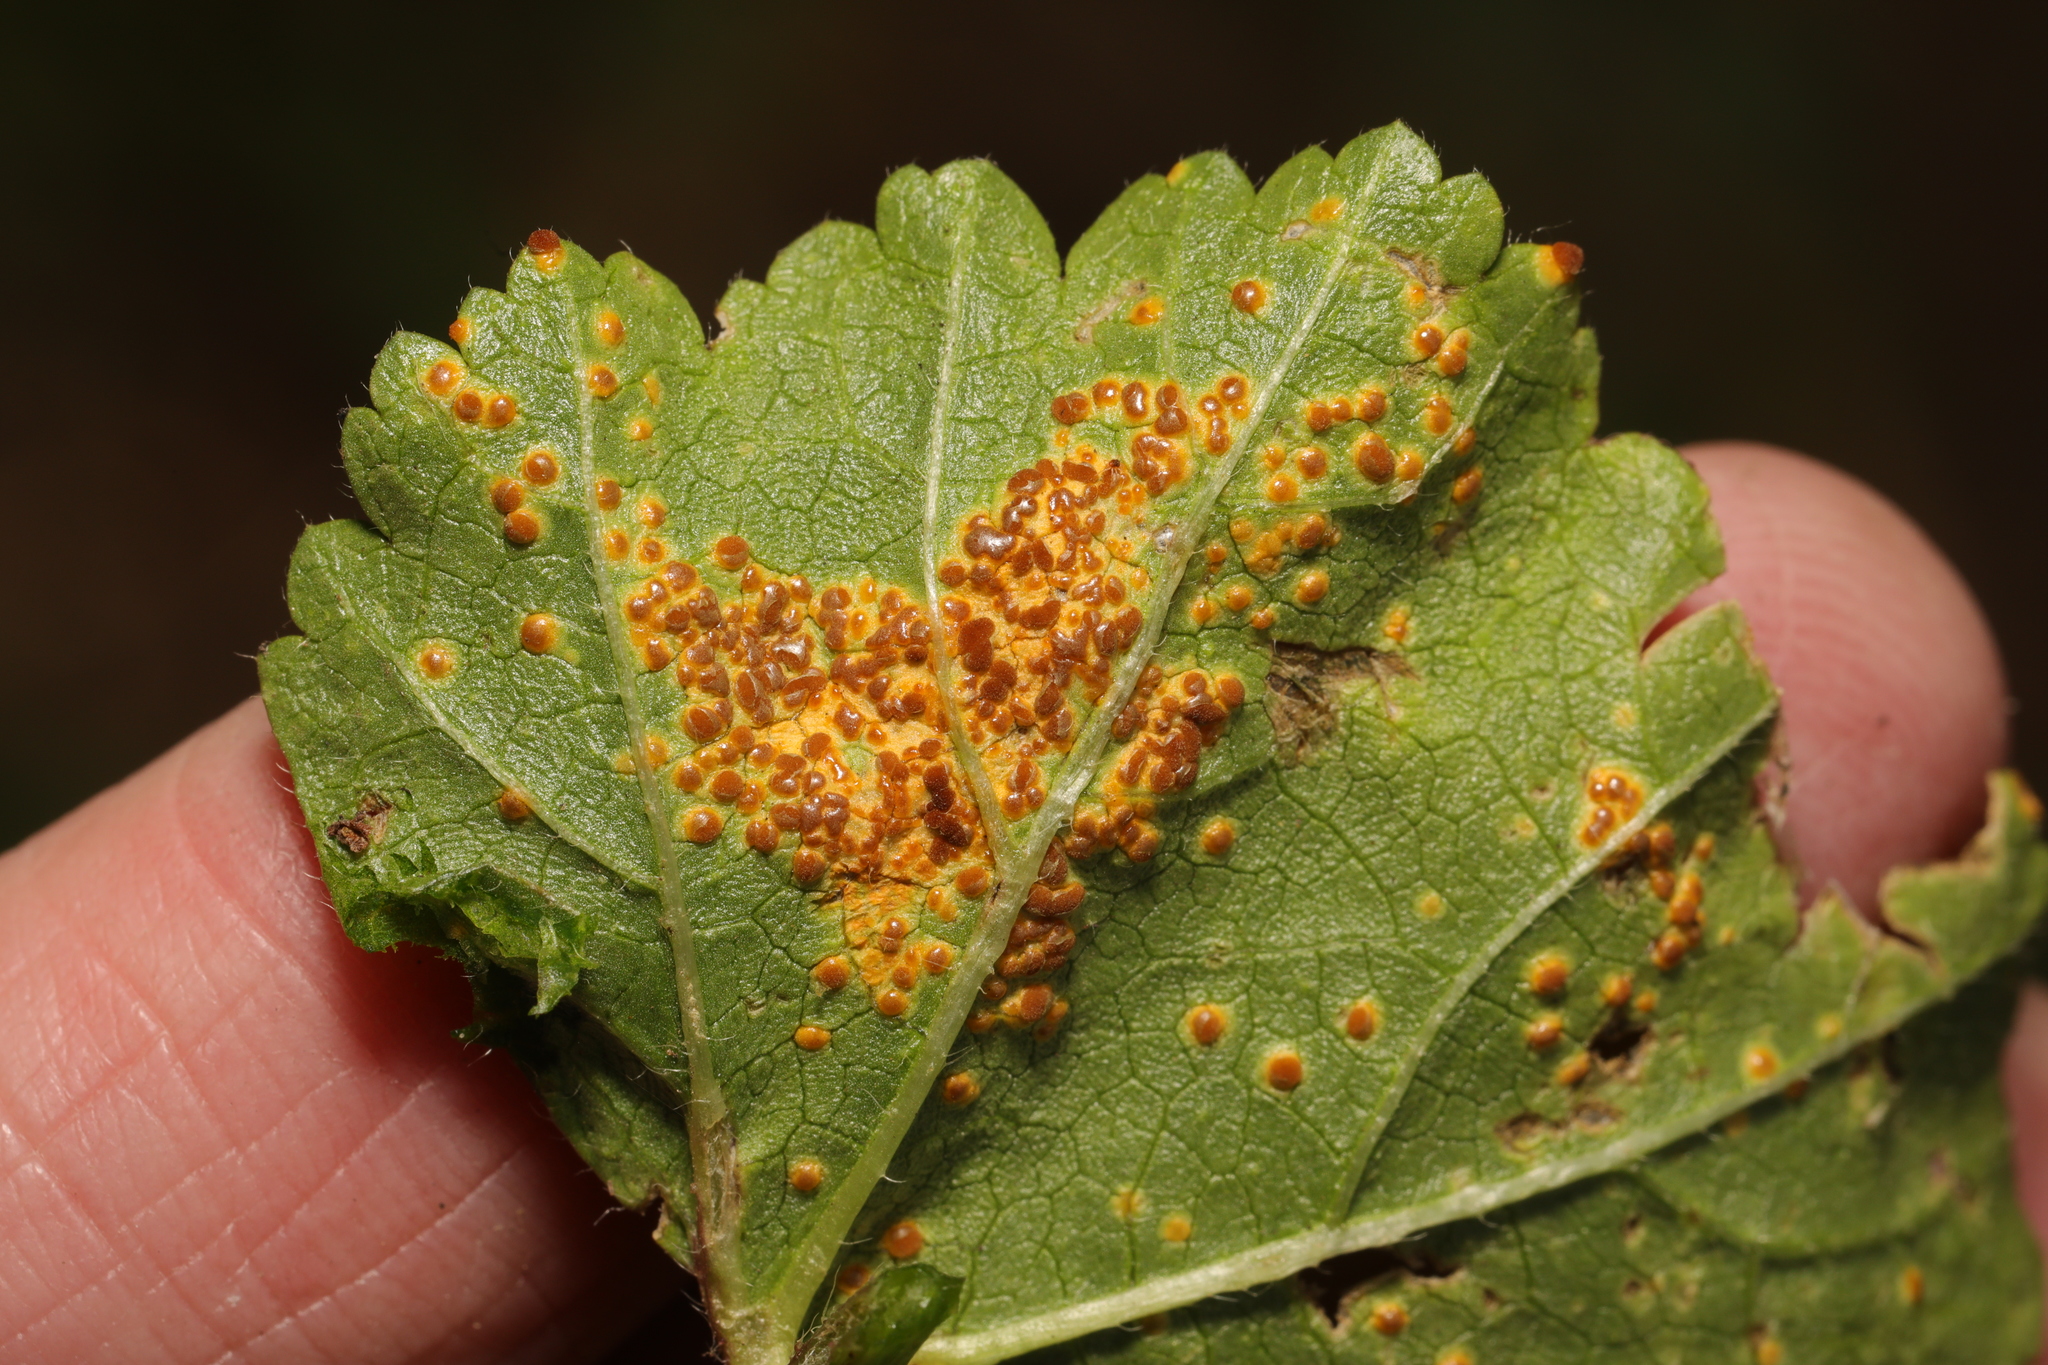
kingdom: Fungi
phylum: Basidiomycota
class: Pucciniomycetes
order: Pucciniales
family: Pucciniaceae
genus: Puccinia
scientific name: Puccinia malvacearum
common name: Hollyhock rust
